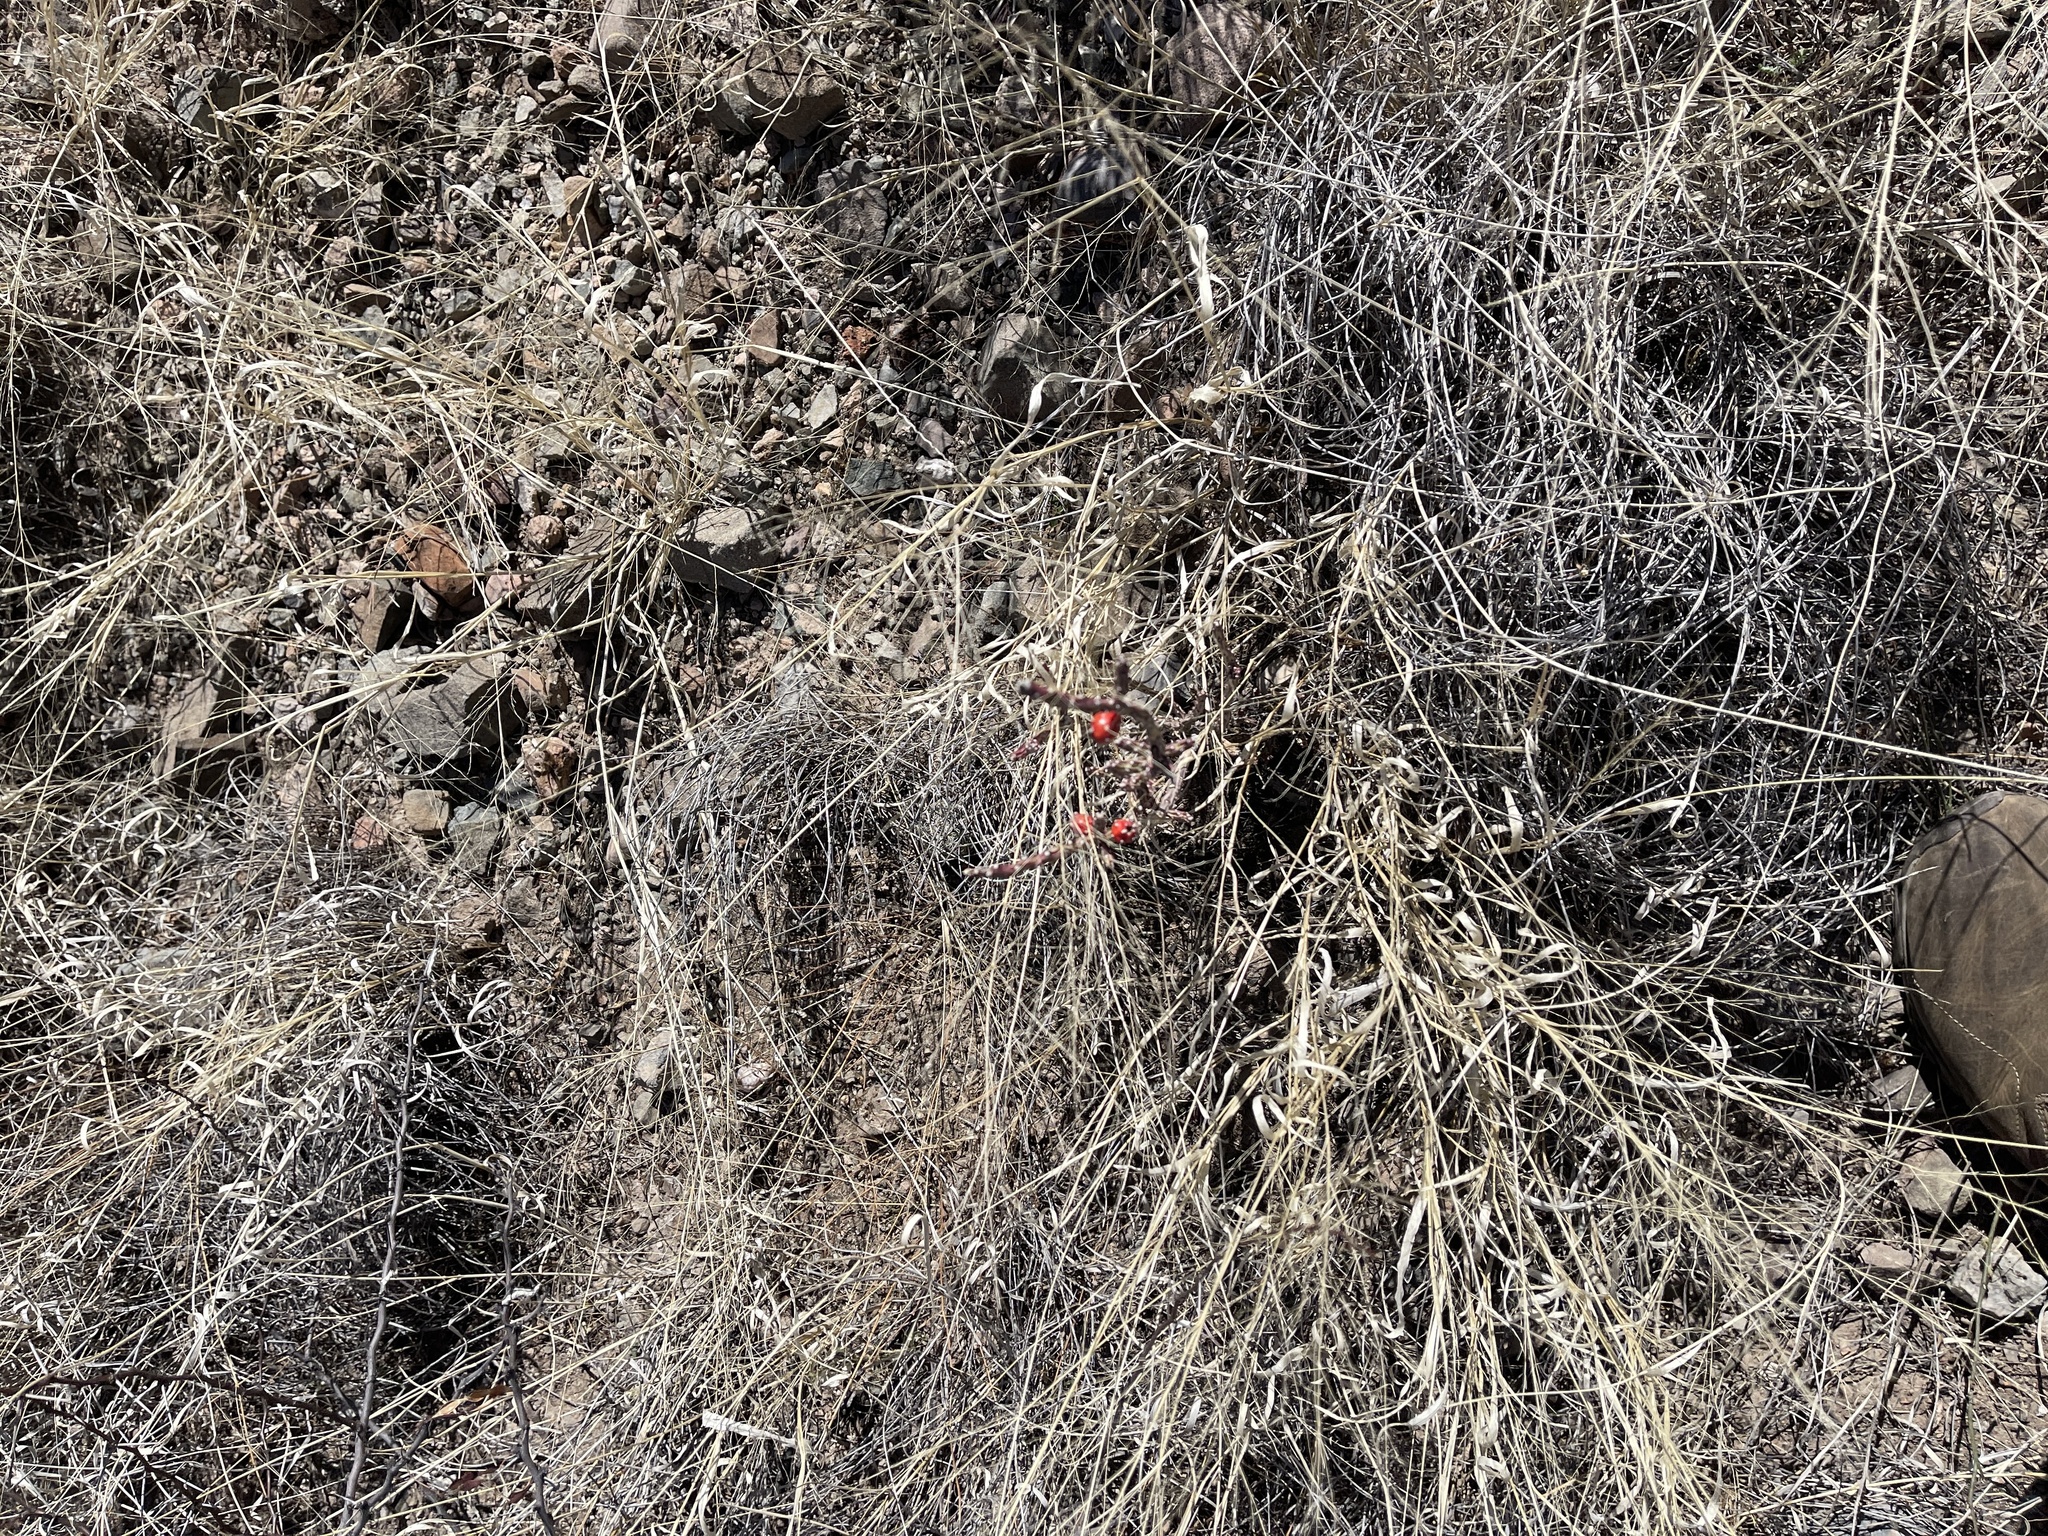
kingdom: Plantae
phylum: Tracheophyta
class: Magnoliopsida
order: Caryophyllales
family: Cactaceae
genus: Cylindropuntia
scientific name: Cylindropuntia leptocaulis
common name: Christmas cactus
